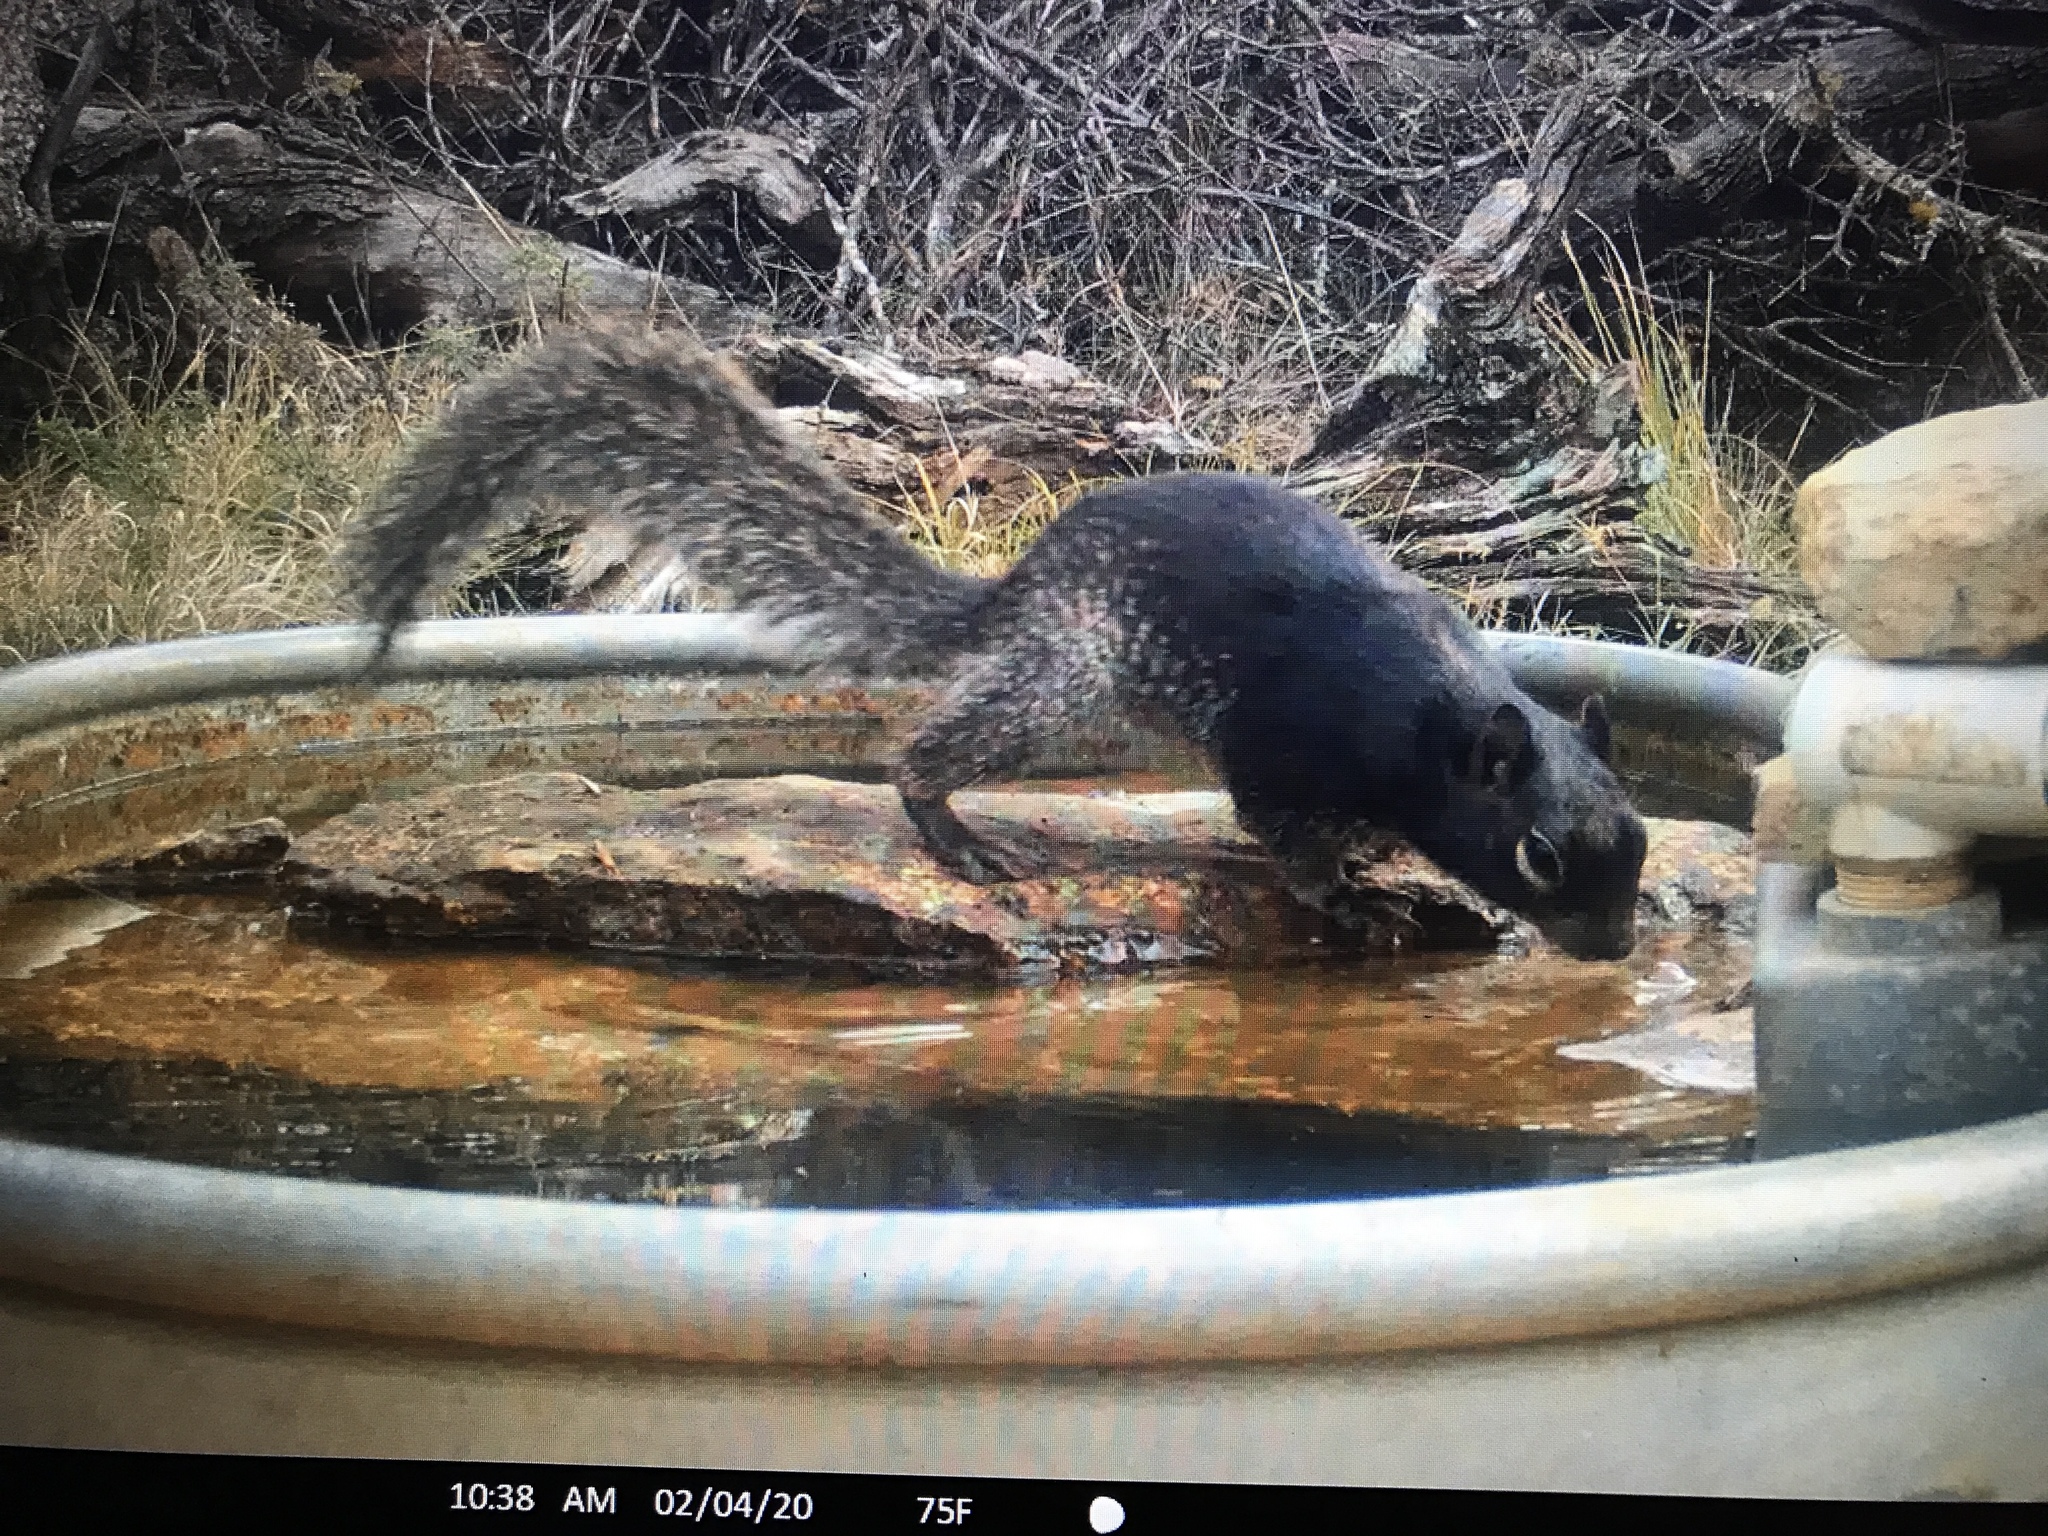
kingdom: Animalia
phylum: Chordata
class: Mammalia
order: Rodentia
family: Sciuridae
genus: Otospermophilus
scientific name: Otospermophilus variegatus
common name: Rock squirrel
